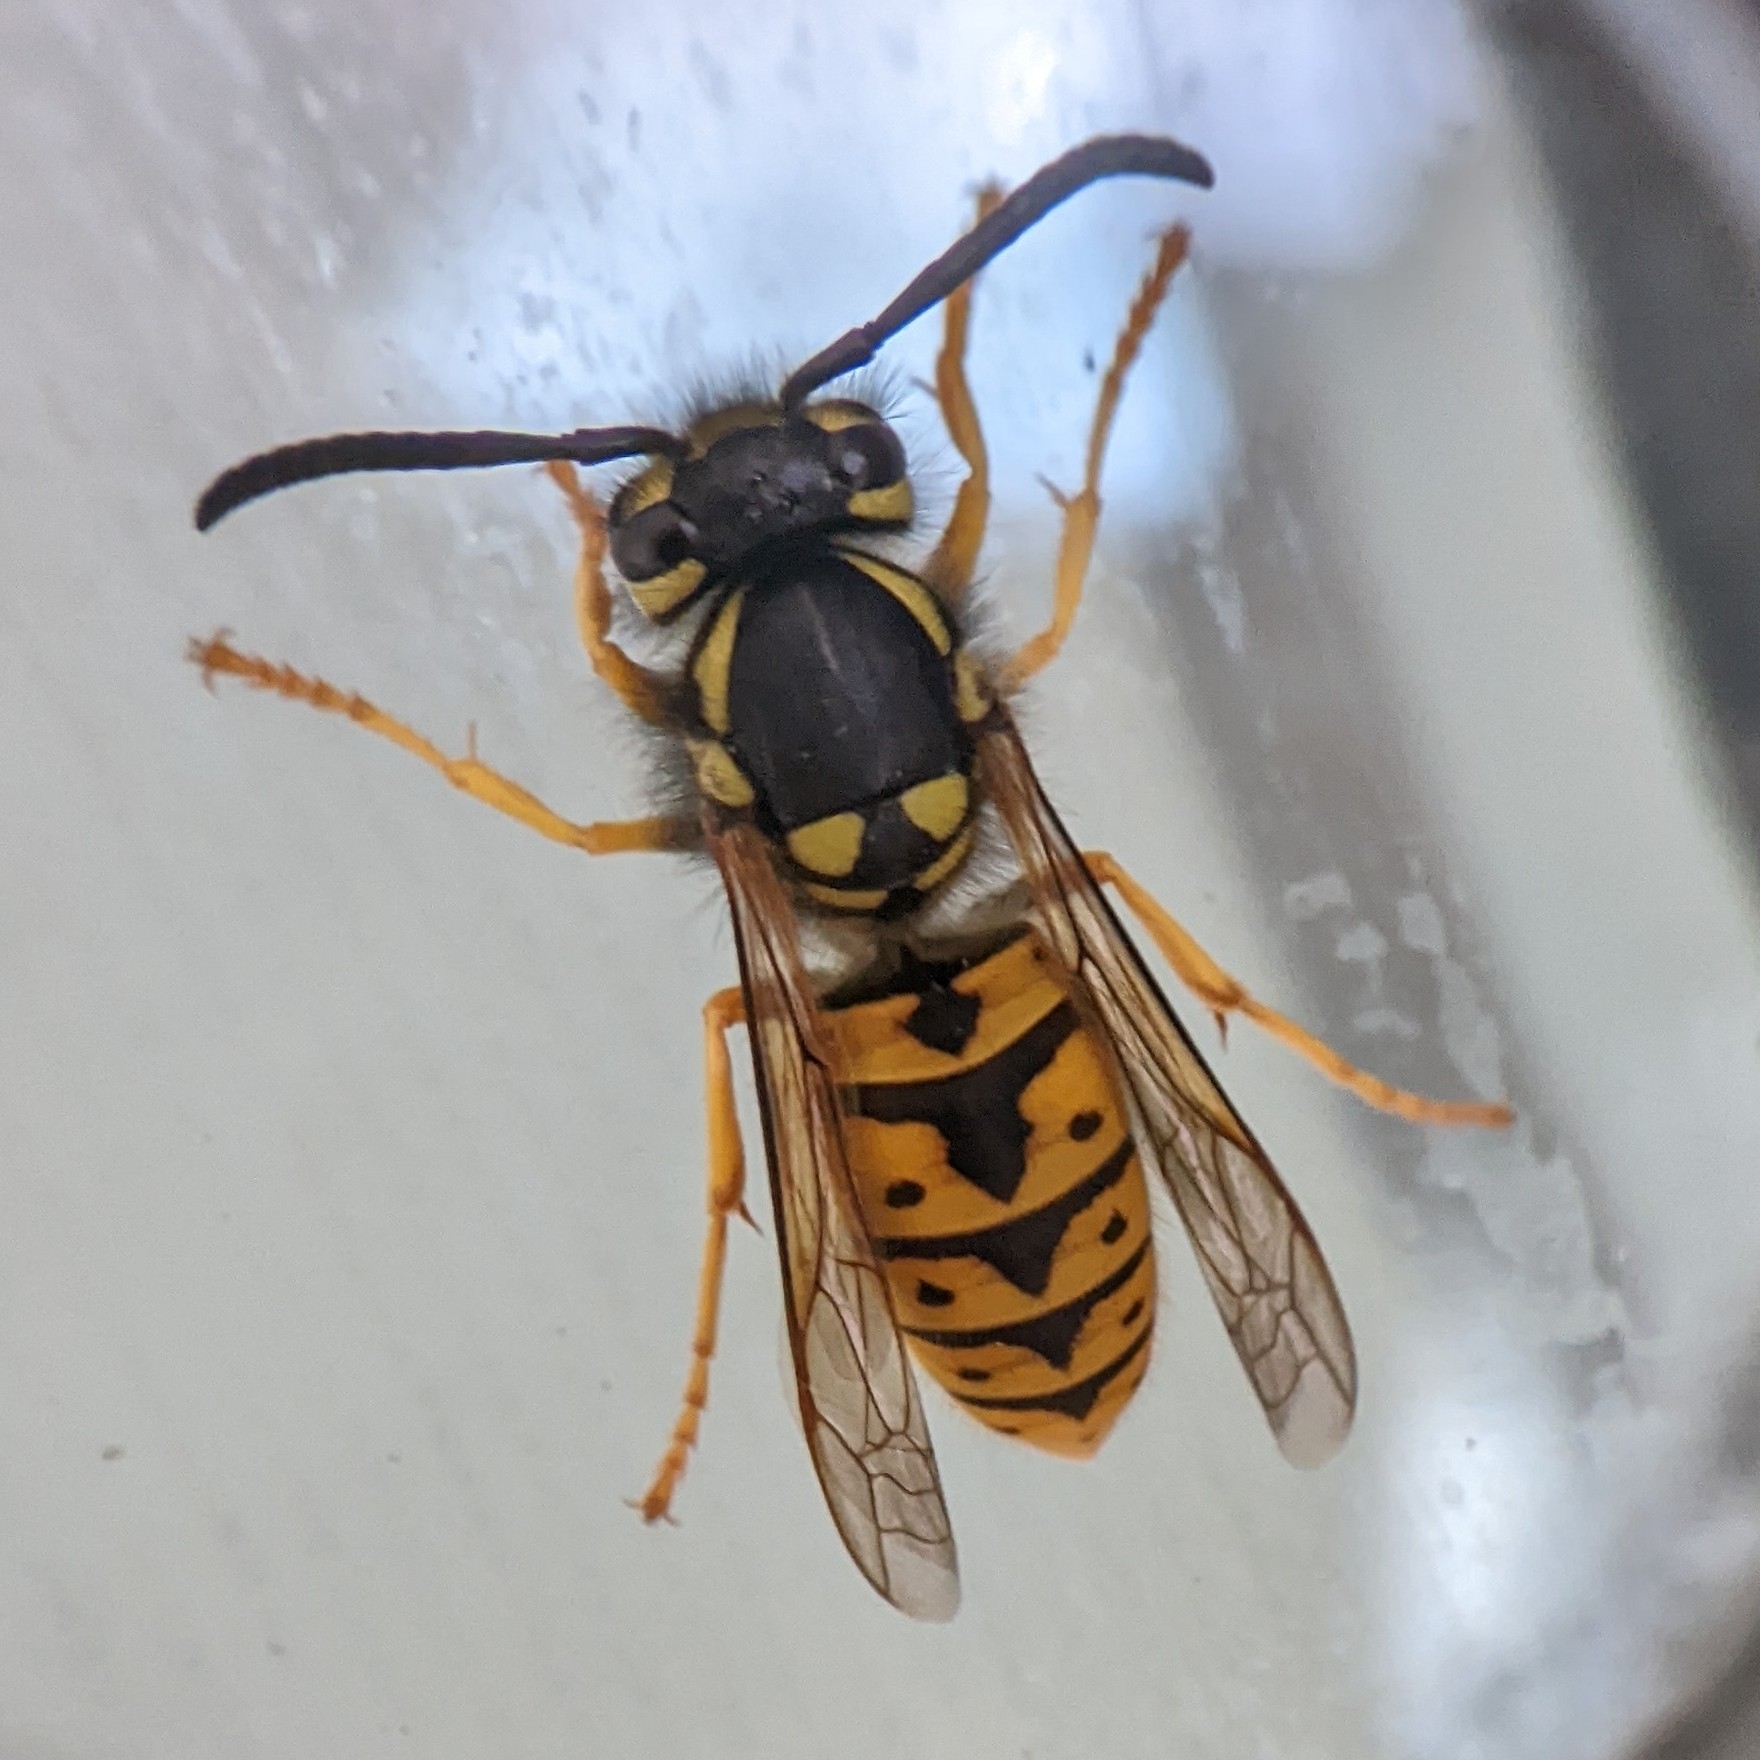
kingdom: Animalia
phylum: Arthropoda
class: Insecta
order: Hymenoptera
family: Vespidae
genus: Vespula
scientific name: Vespula germanica
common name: German wasp
